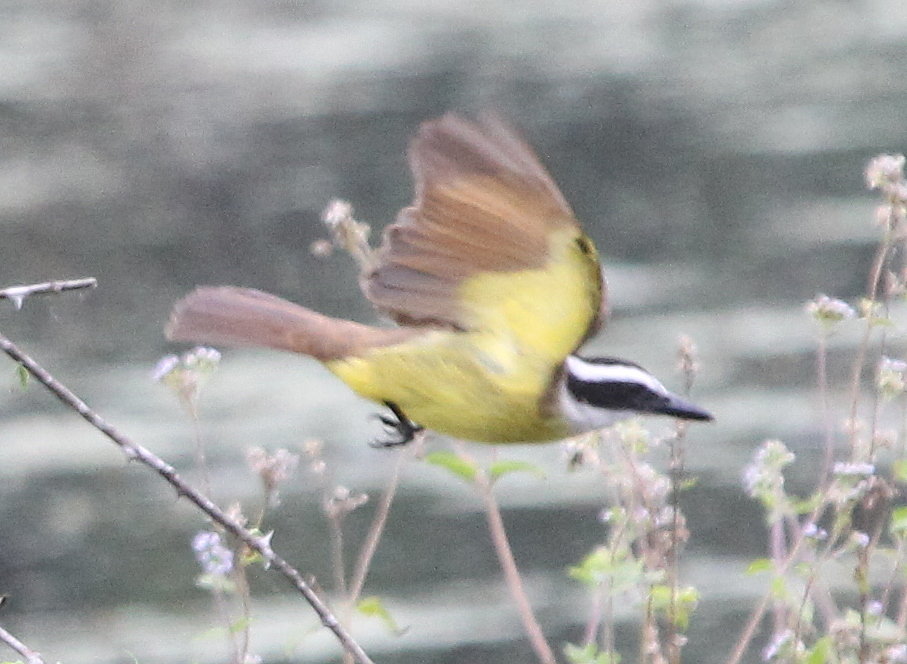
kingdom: Animalia
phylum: Chordata
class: Aves
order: Passeriformes
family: Tyrannidae
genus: Pitangus
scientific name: Pitangus sulphuratus
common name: Great kiskadee
